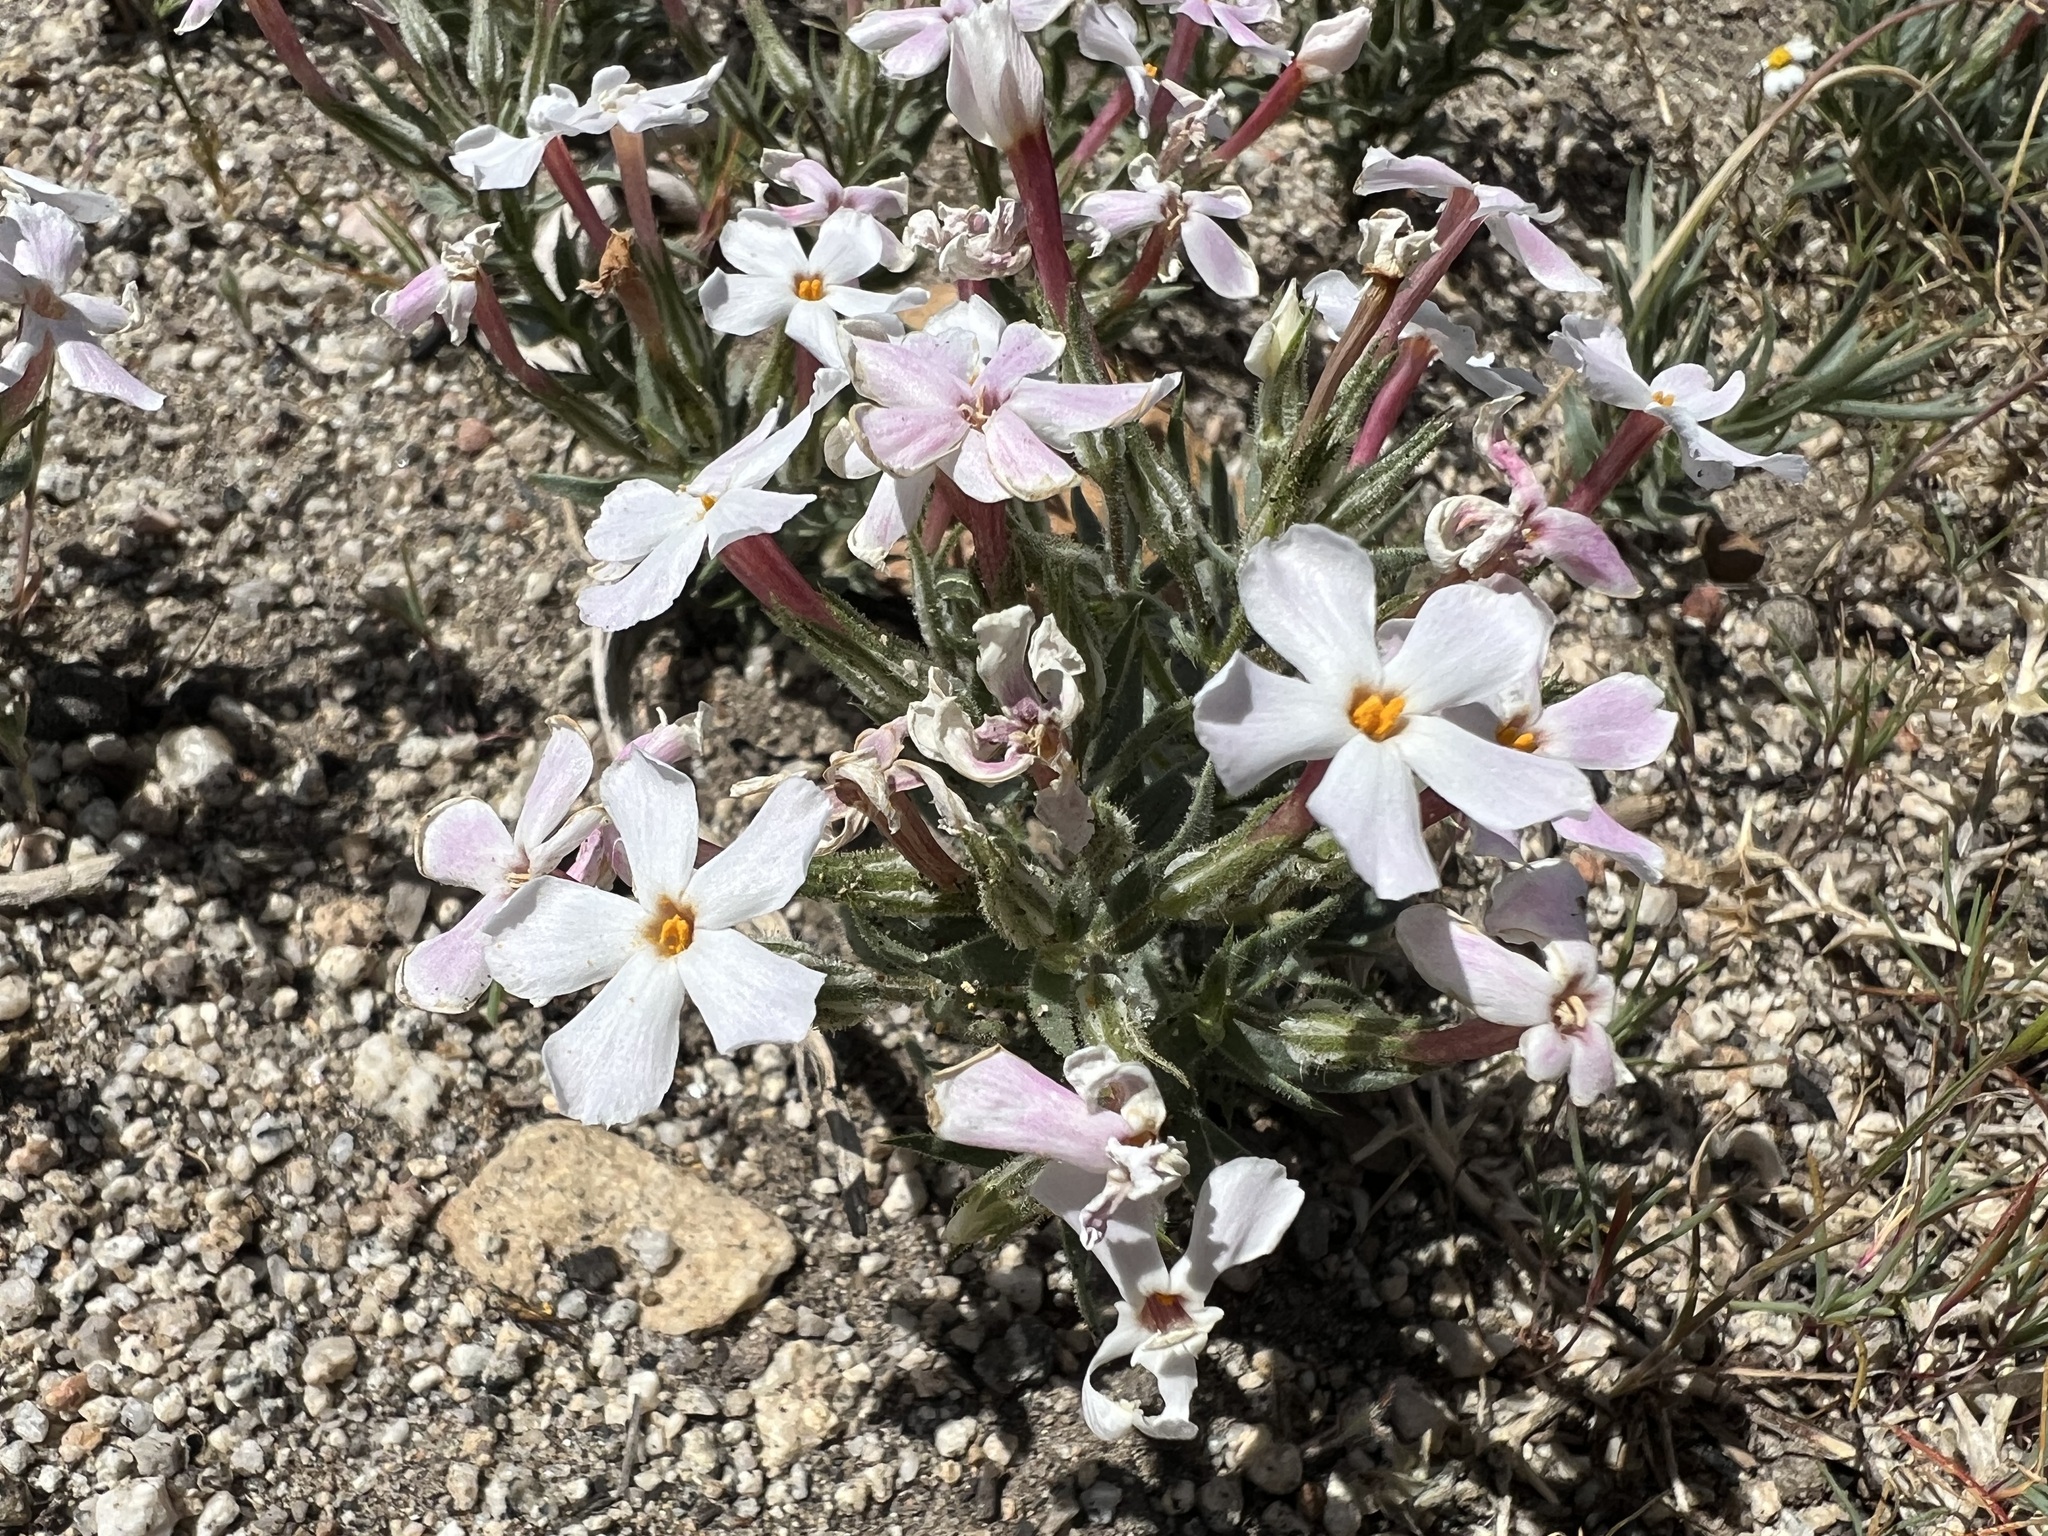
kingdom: Plantae
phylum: Tracheophyta
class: Magnoliopsida
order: Ericales
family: Polemoniaceae
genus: Phlox
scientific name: Phlox longifolia
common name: Longleaf phlox
